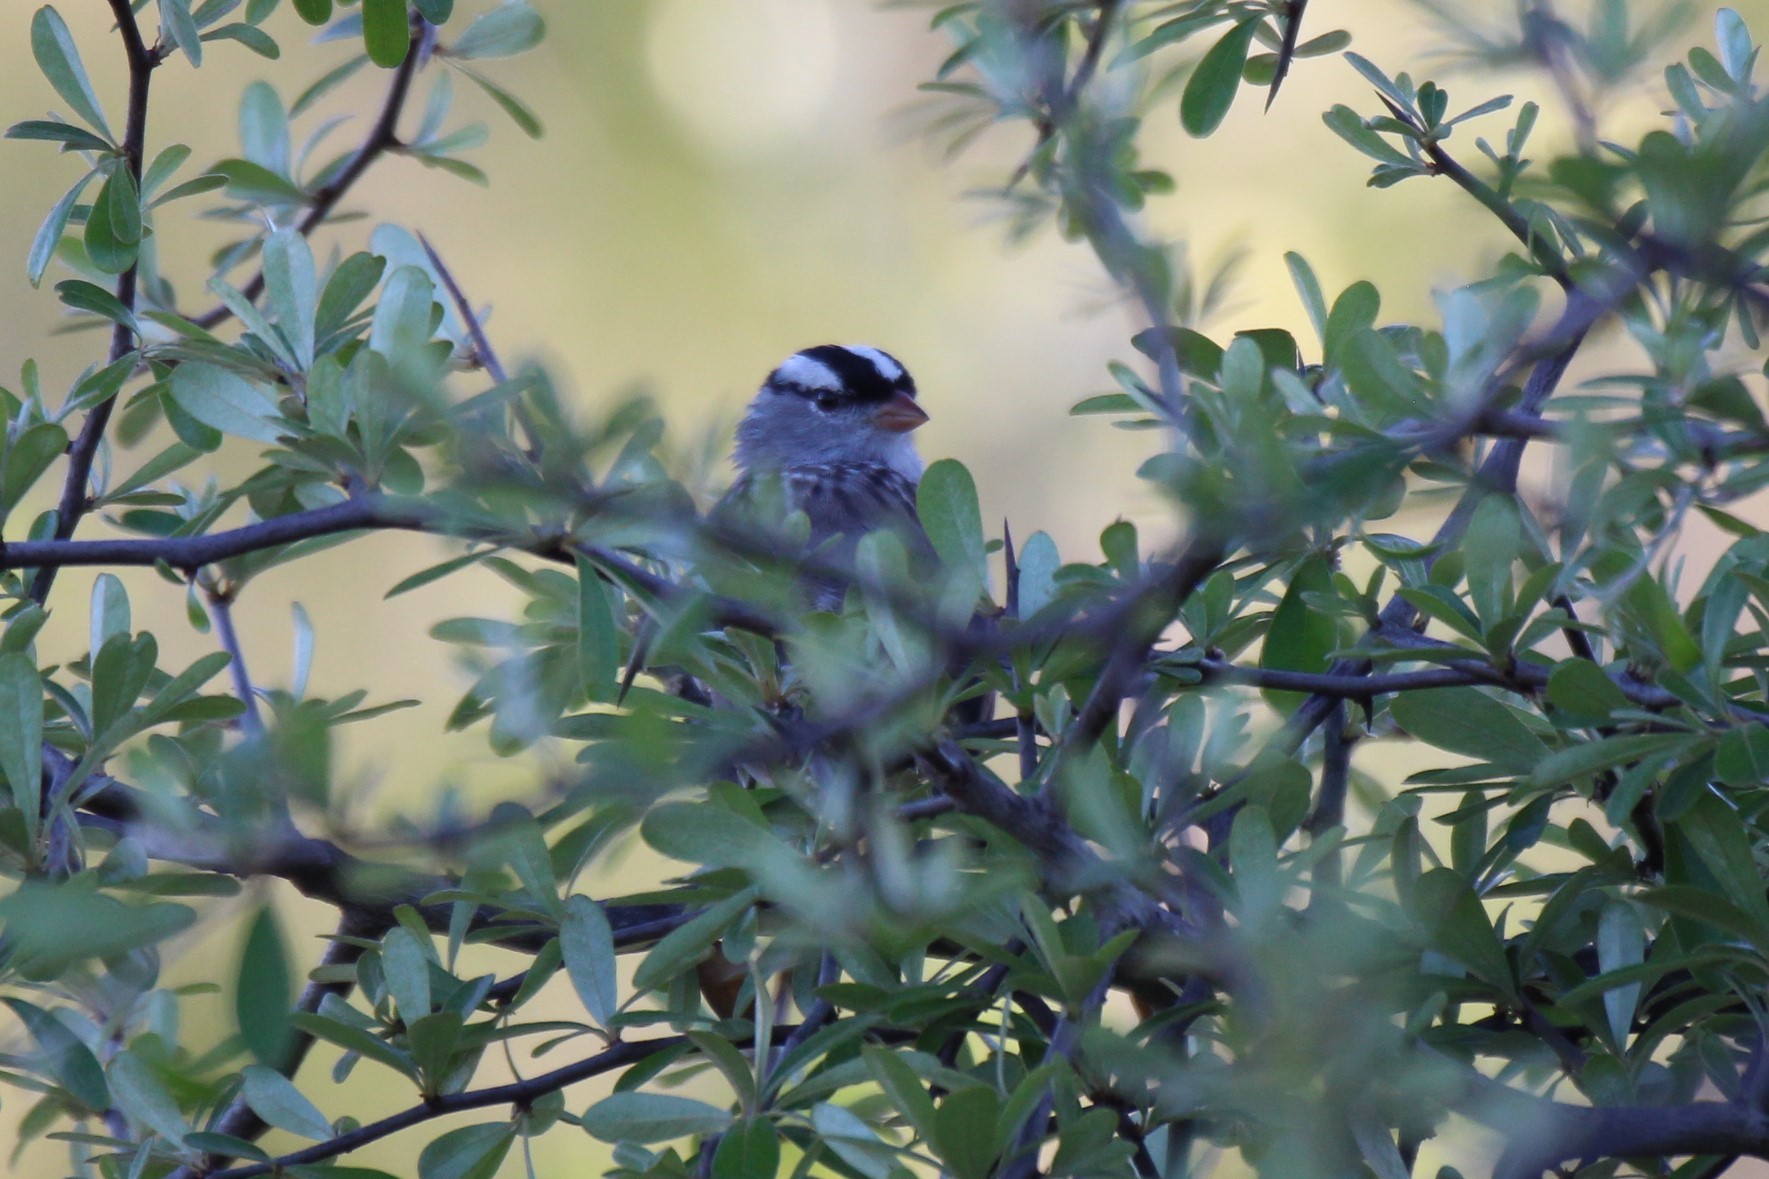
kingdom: Animalia
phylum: Chordata
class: Aves
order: Passeriformes
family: Passerellidae
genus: Zonotrichia
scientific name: Zonotrichia leucophrys
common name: White-crowned sparrow
